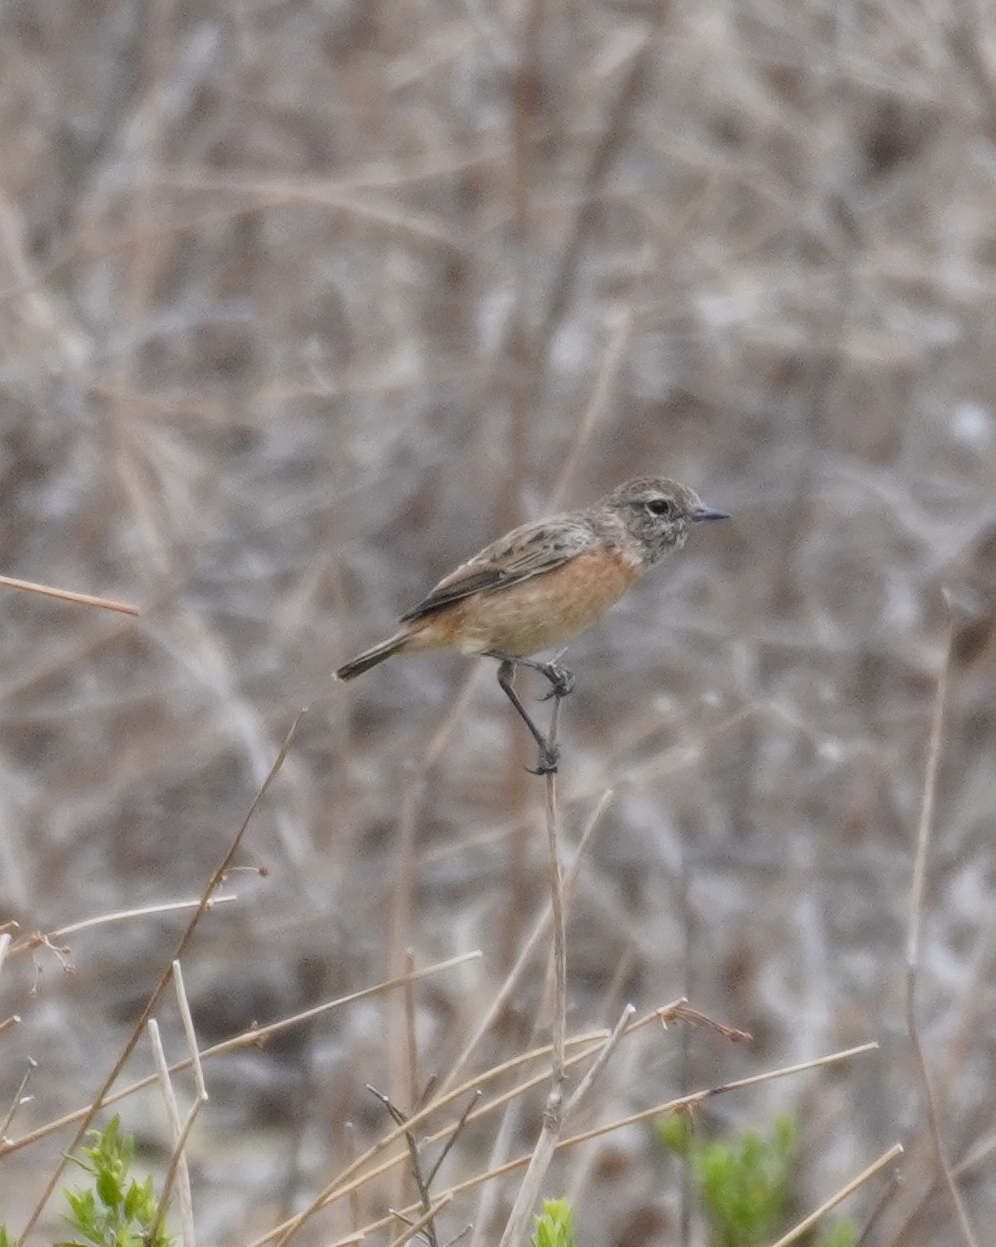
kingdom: Animalia
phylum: Chordata
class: Aves
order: Passeriformes
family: Muscicapidae
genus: Saxicola
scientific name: Saxicola rubicola
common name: European stonechat
